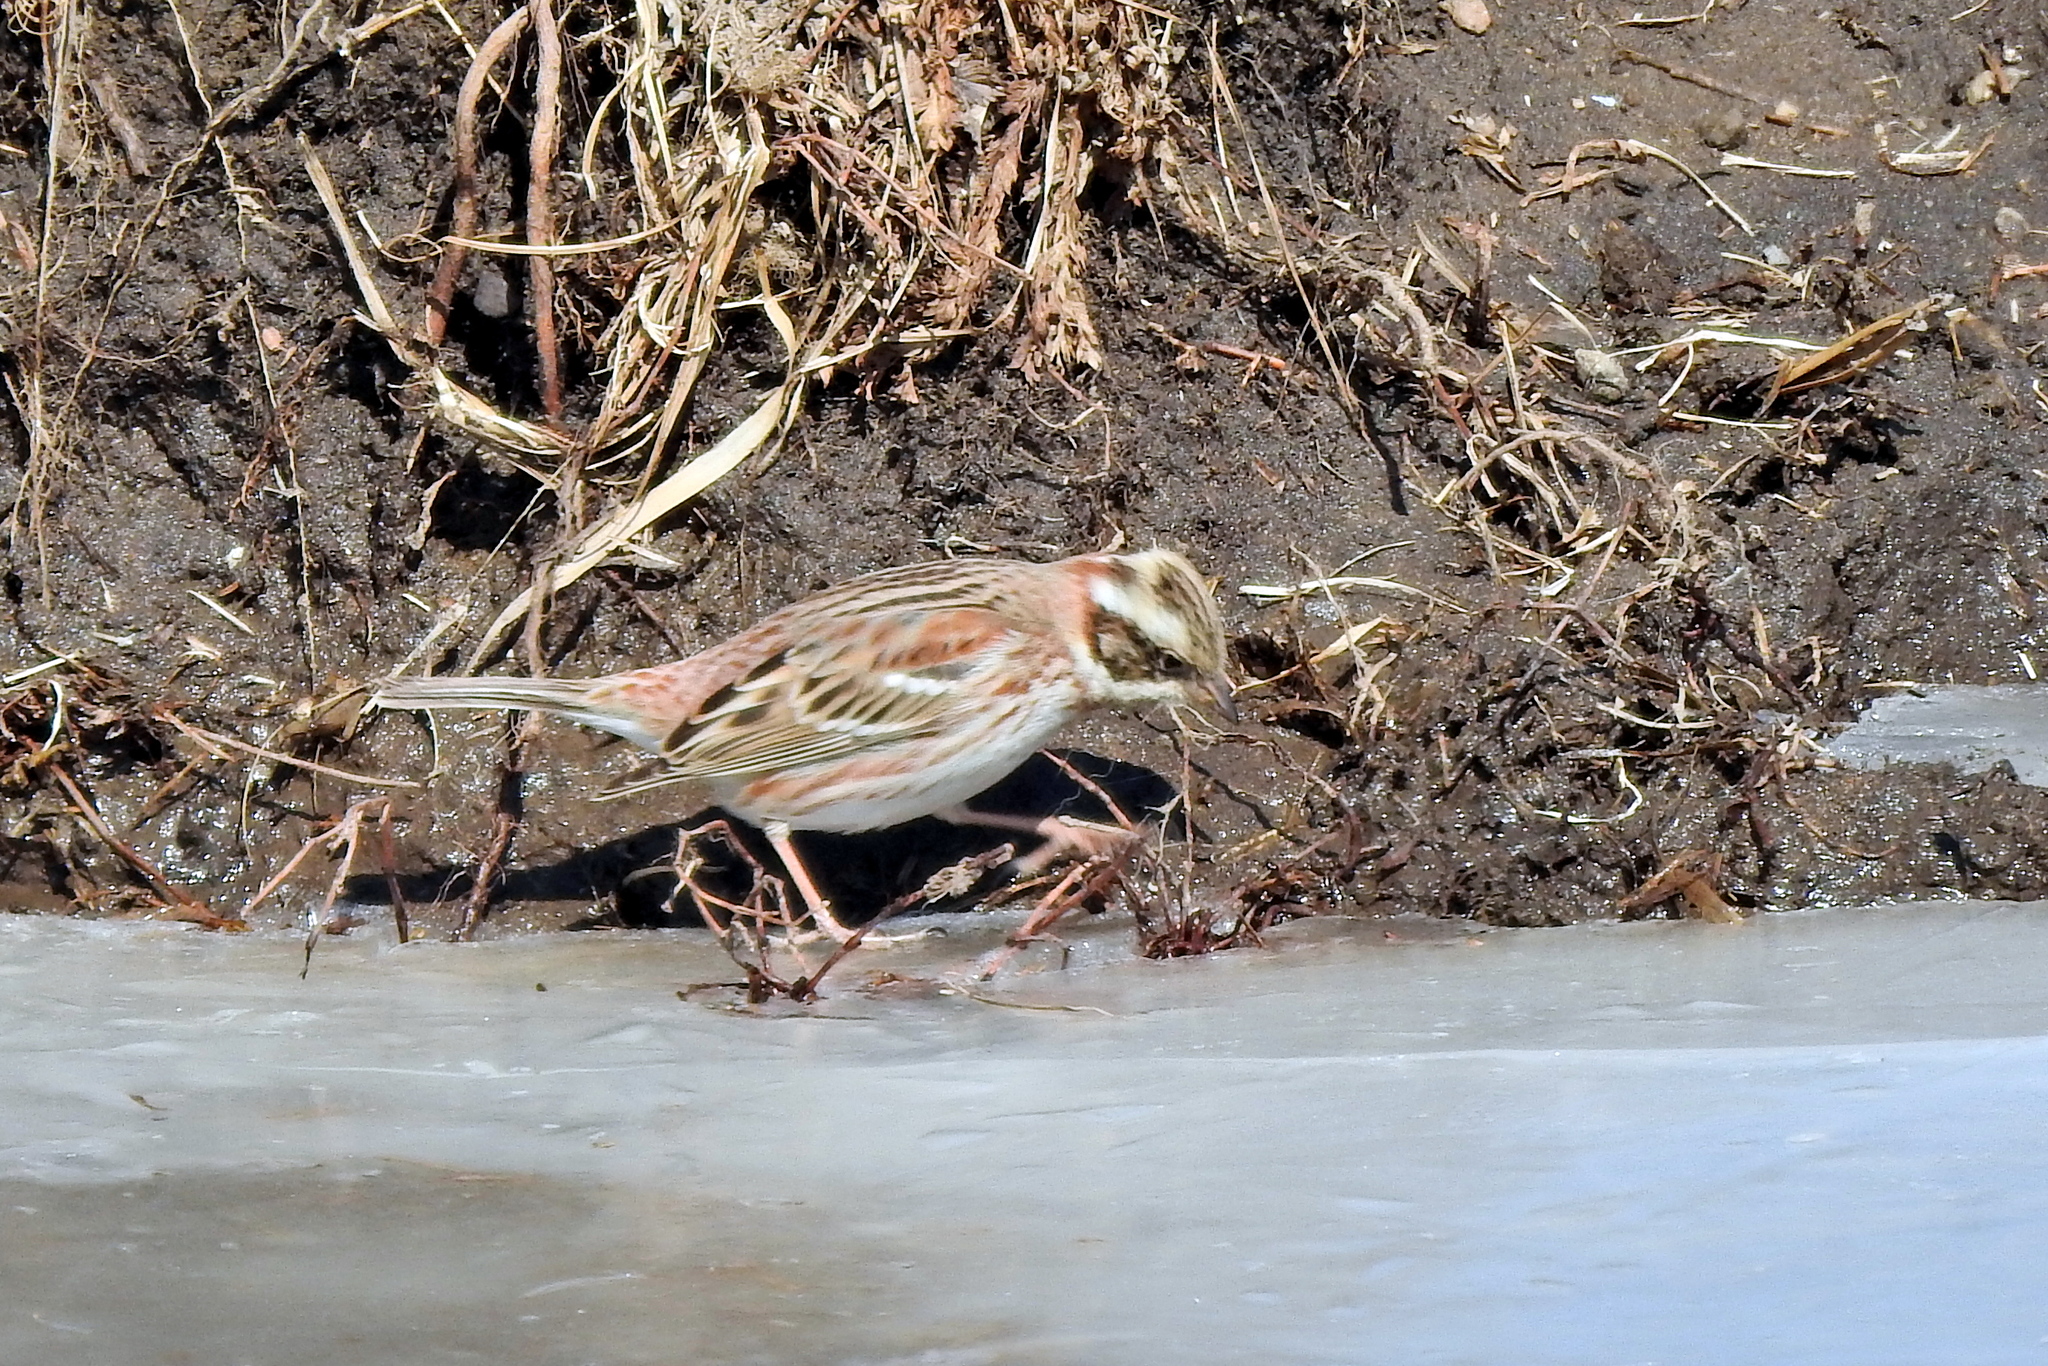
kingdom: Animalia
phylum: Chordata
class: Aves
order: Passeriformes
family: Emberizidae
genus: Emberiza
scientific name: Emberiza rustica
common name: Rustic bunting
